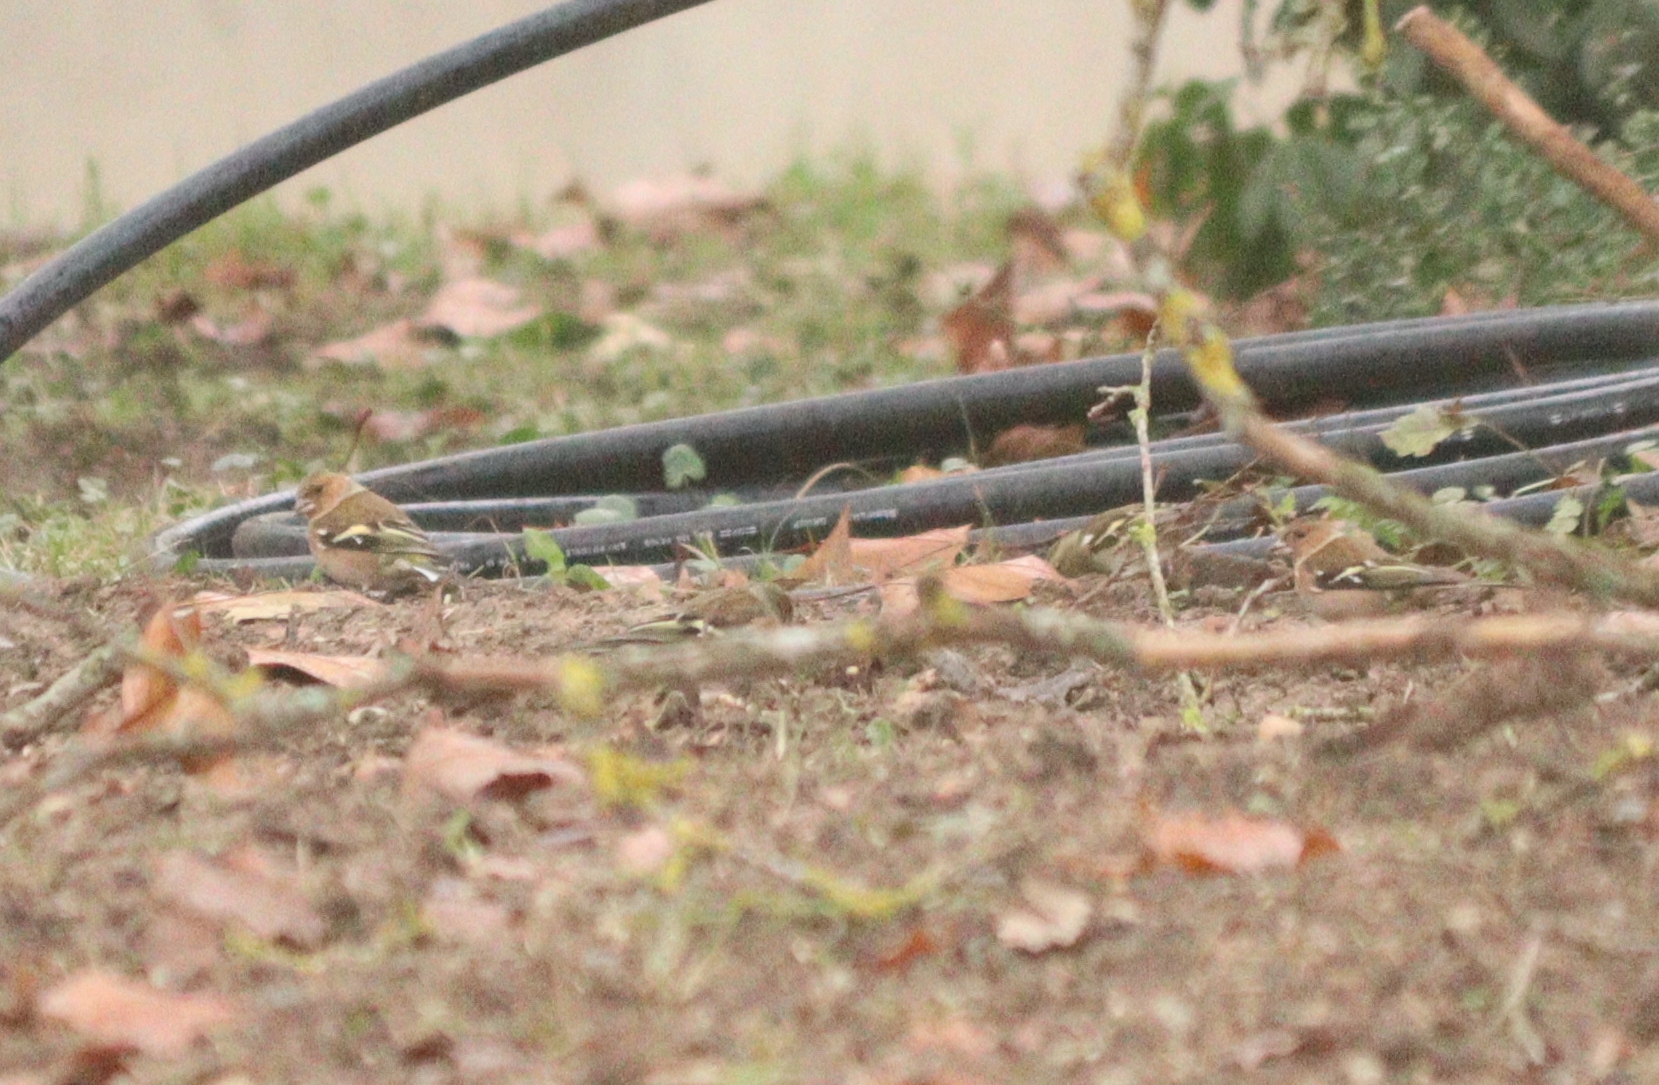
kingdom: Animalia
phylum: Chordata
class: Aves
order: Passeriformes
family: Fringillidae
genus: Fringilla
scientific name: Fringilla coelebs
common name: Common chaffinch
